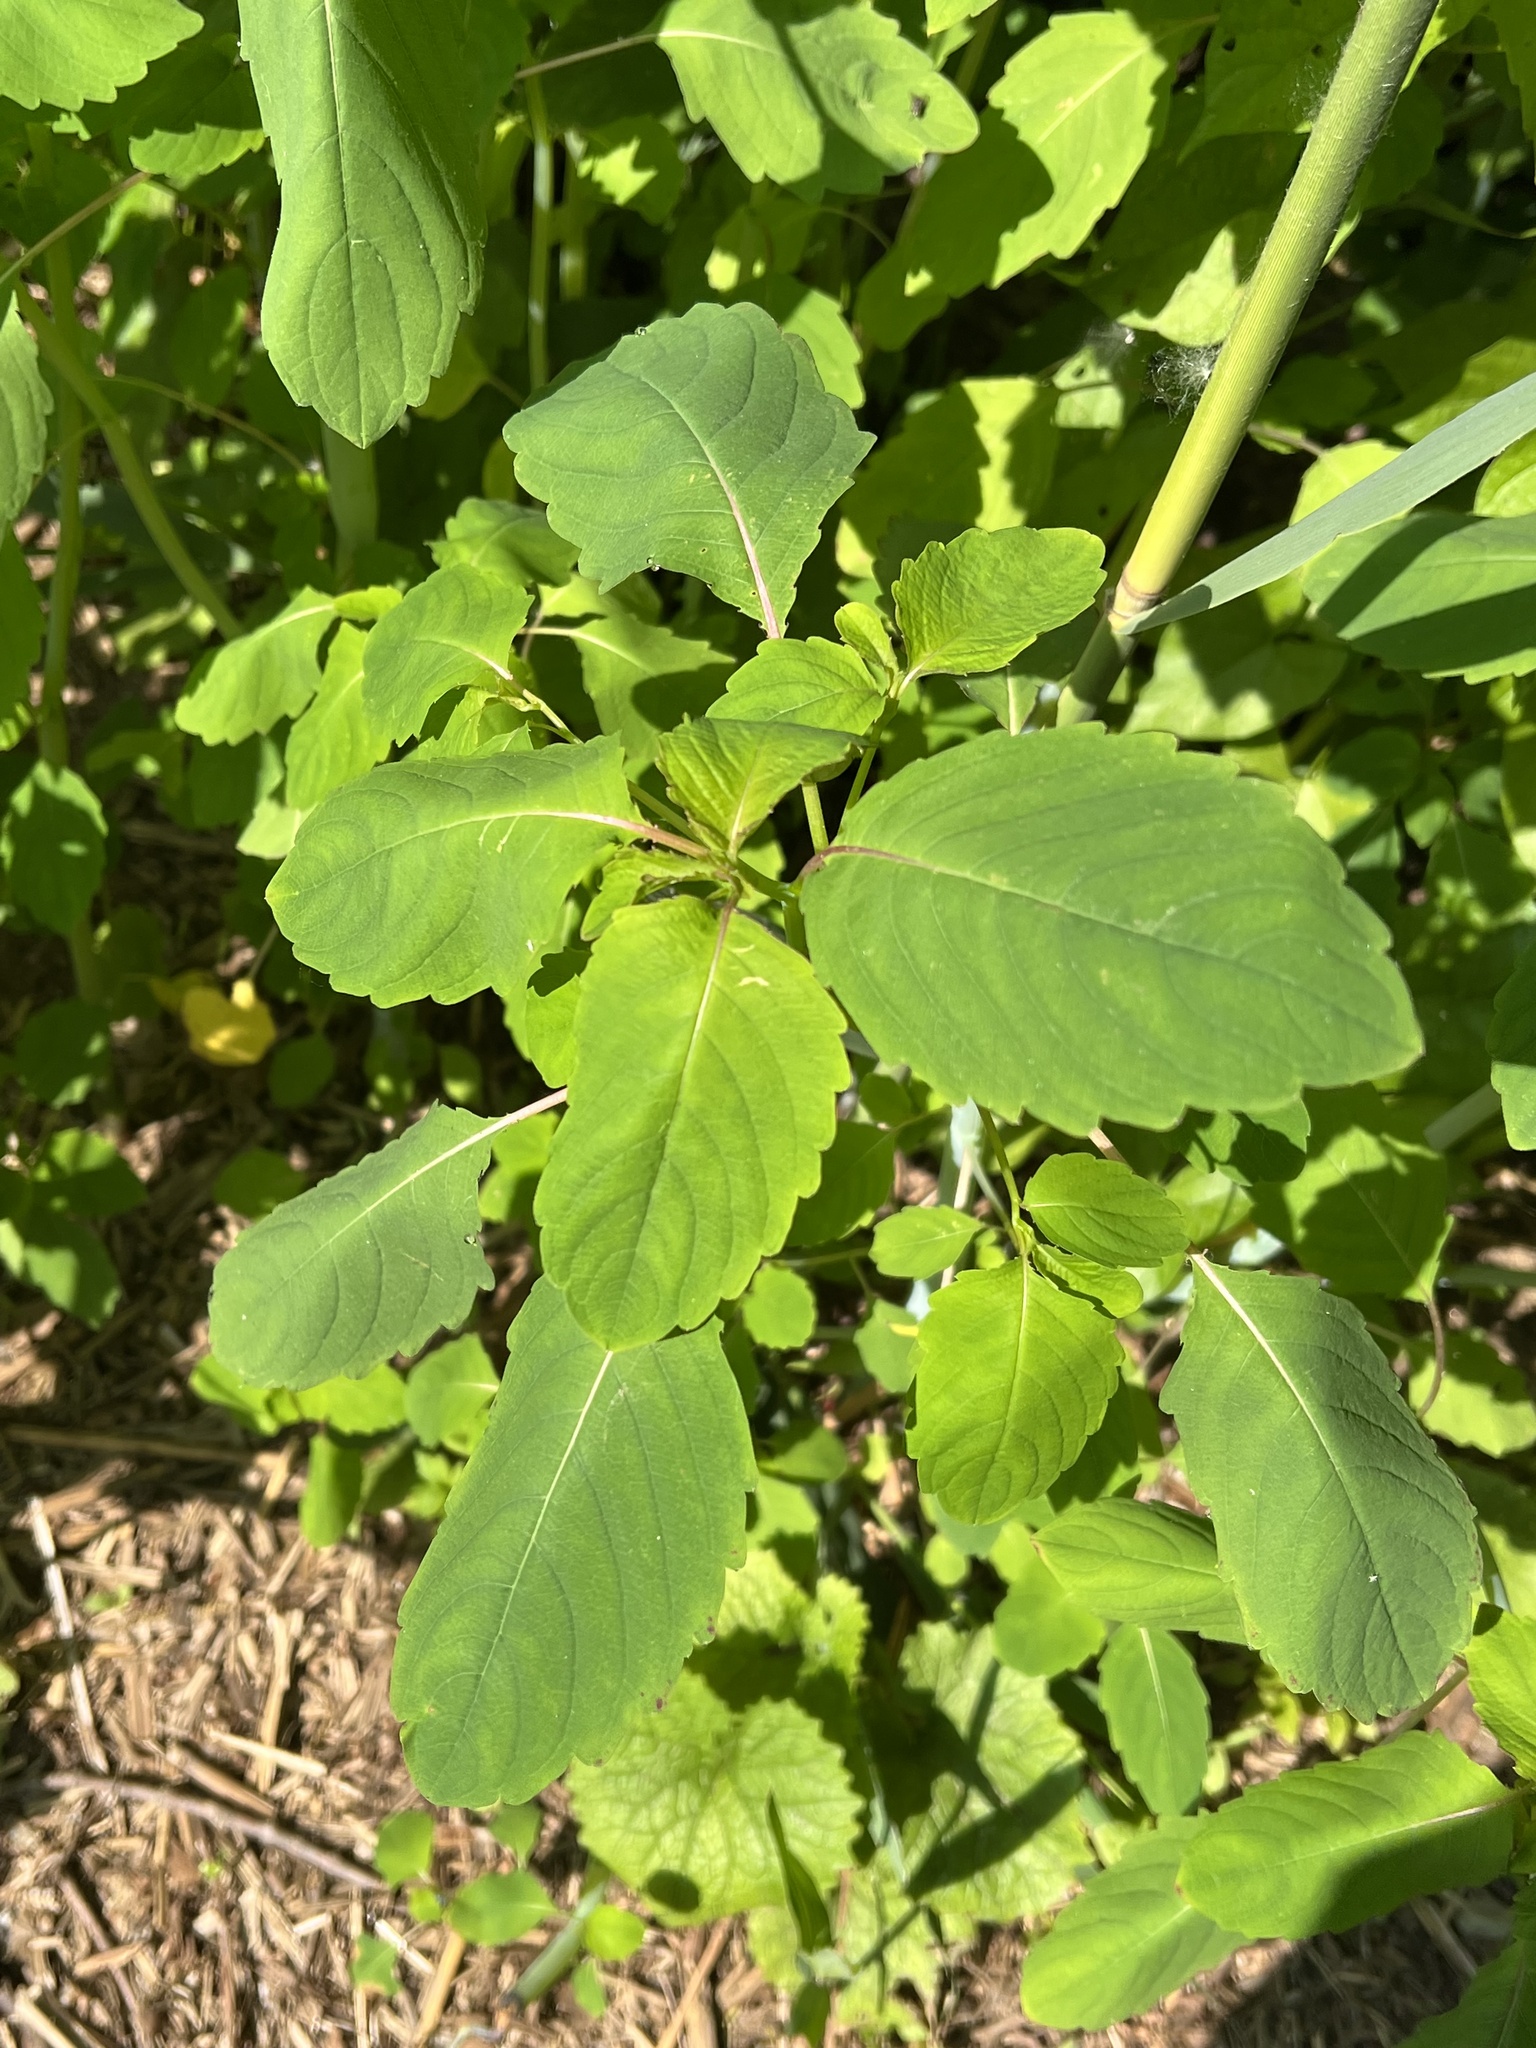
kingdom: Plantae
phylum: Tracheophyta
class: Magnoliopsida
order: Ericales
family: Balsaminaceae
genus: Impatiens
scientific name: Impatiens capensis
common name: Orange balsam
